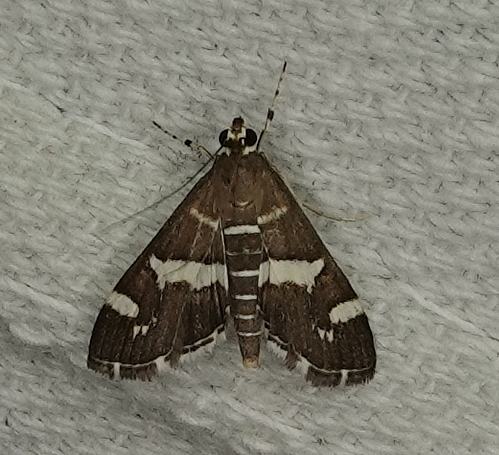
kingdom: Animalia
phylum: Arthropoda
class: Insecta
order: Lepidoptera
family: Crambidae
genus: Spoladea
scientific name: Spoladea recurvalis
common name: Beet webworm moth
